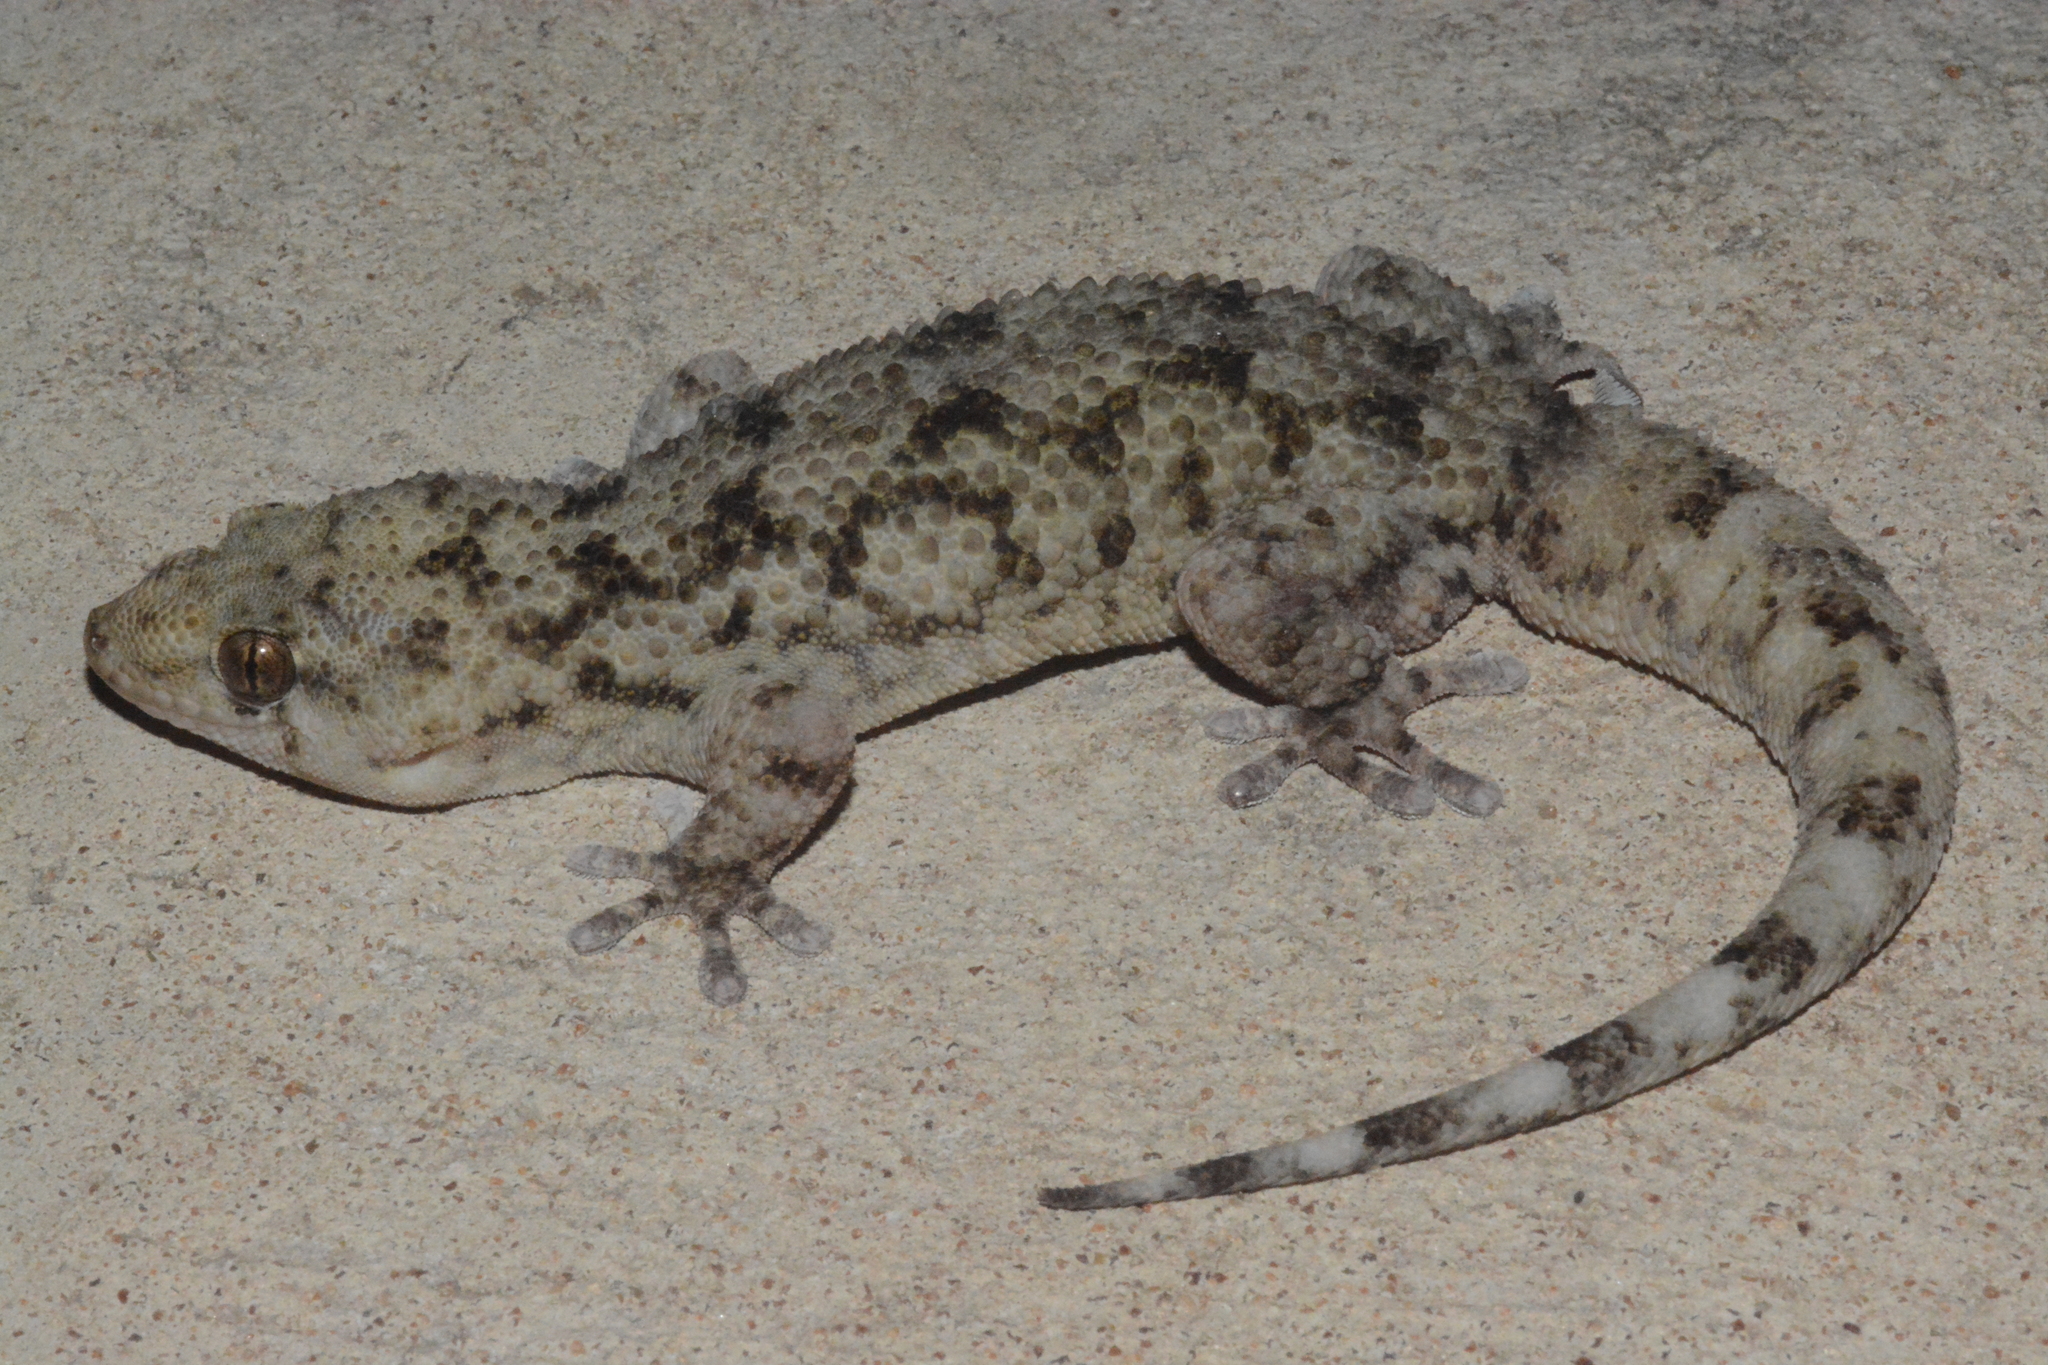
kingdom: Animalia
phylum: Chordata
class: Squamata
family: Gekkonidae
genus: Elasmodactylus
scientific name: Elasmodactylus tuberculosus
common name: Warty thick-toed gecko
